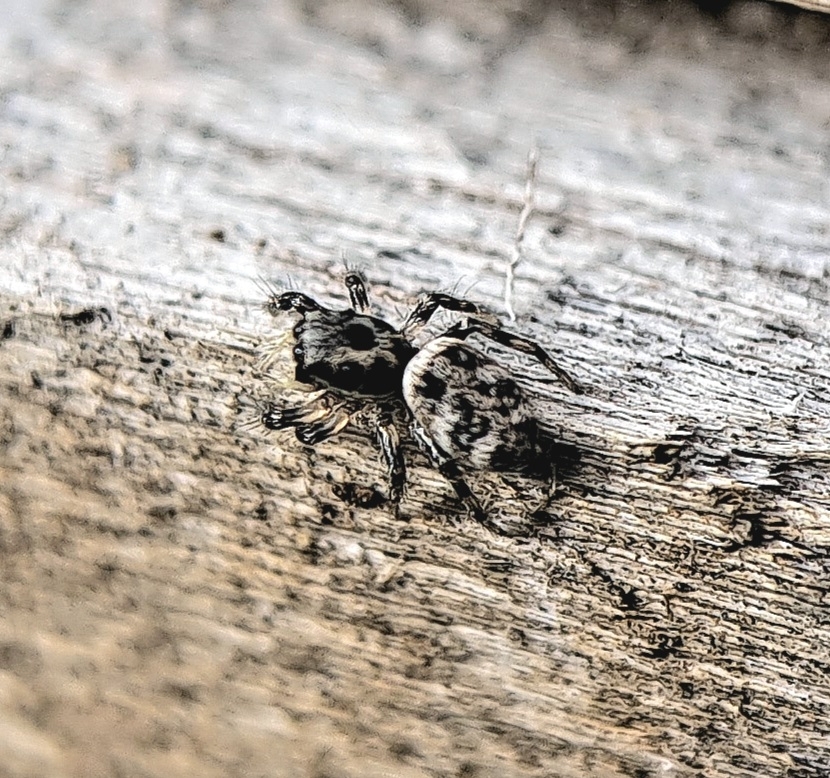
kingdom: Animalia
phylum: Arthropoda
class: Arachnida
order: Araneae
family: Salticidae
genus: Salticus
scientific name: Salticus scenicus
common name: Zebra jumper
